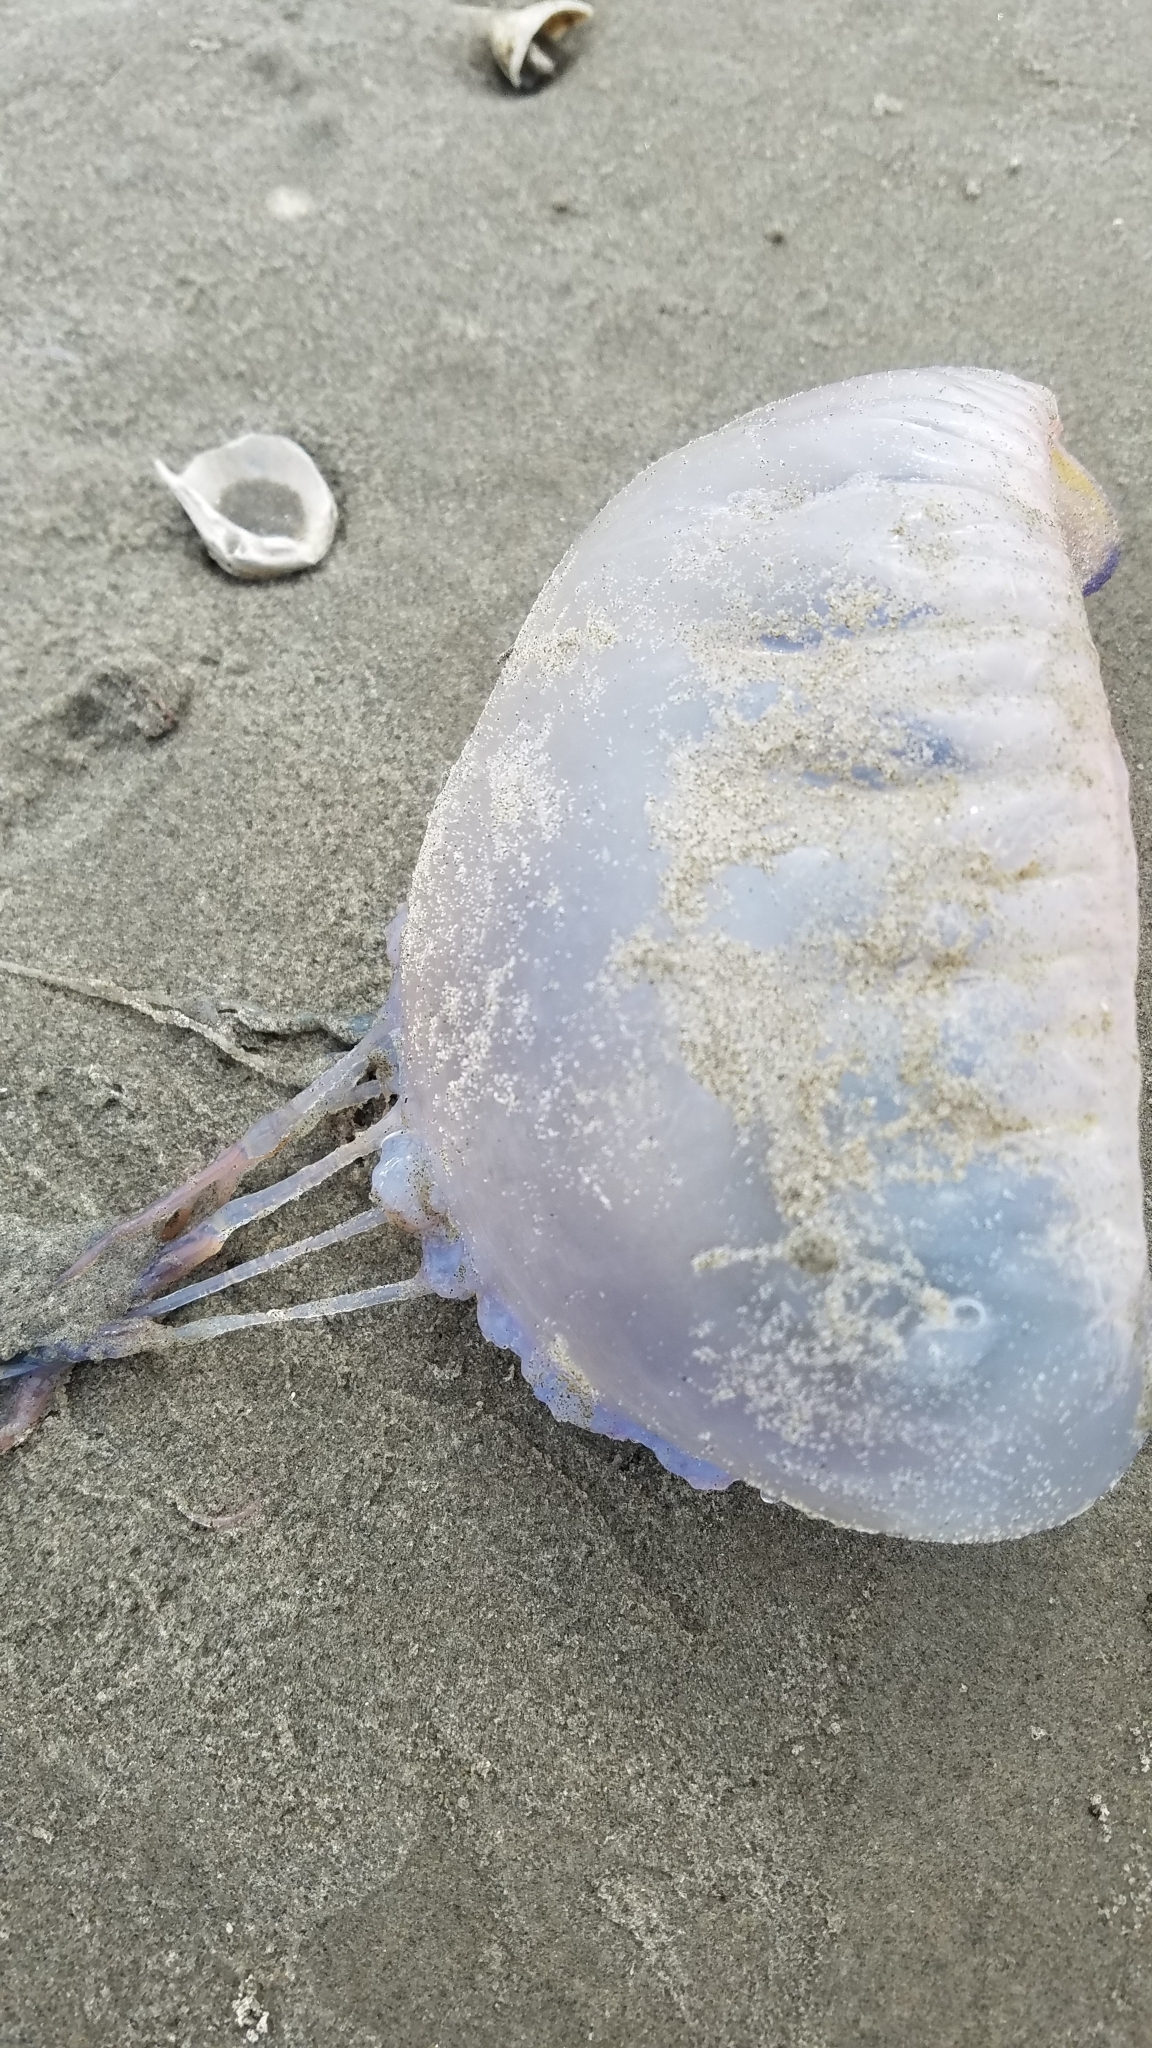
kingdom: Animalia
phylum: Cnidaria
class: Hydrozoa
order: Siphonophorae
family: Physaliidae
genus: Physalia
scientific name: Physalia physalis
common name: Portuguese man-of-war
